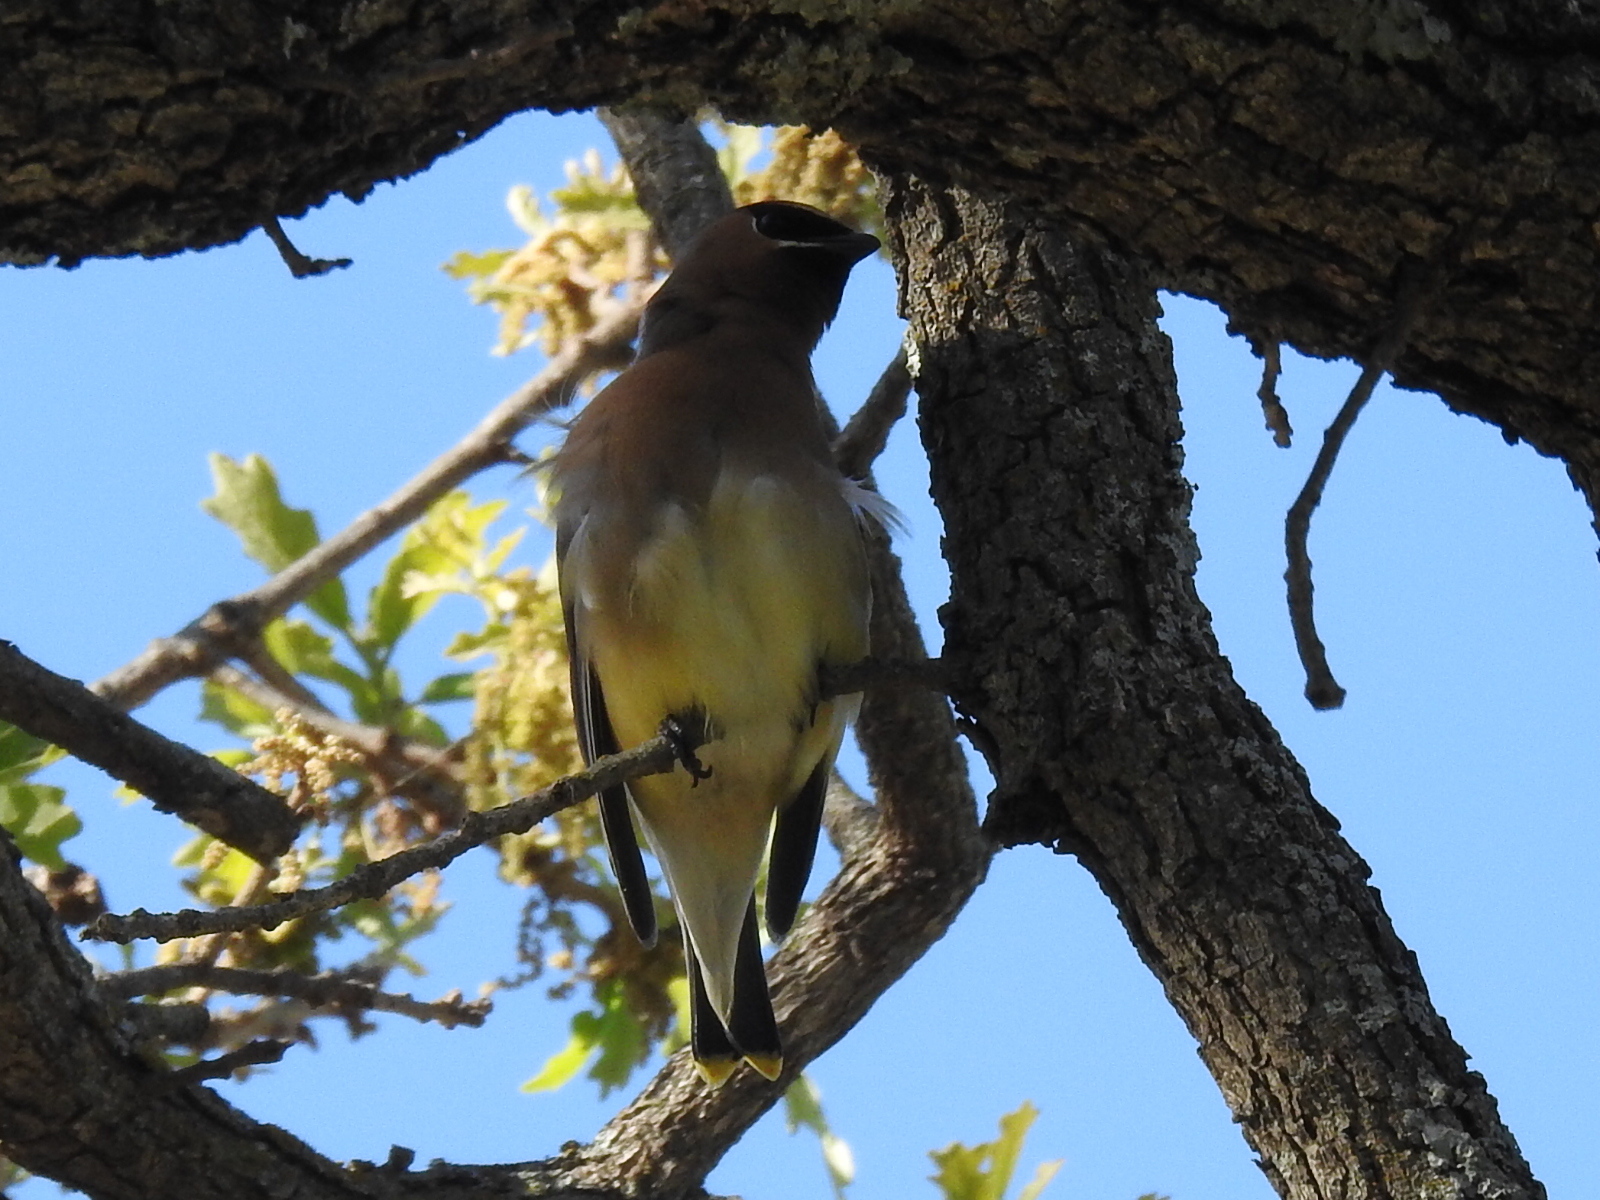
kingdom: Animalia
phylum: Chordata
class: Aves
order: Passeriformes
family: Bombycillidae
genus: Bombycilla
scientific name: Bombycilla cedrorum
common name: Cedar waxwing
